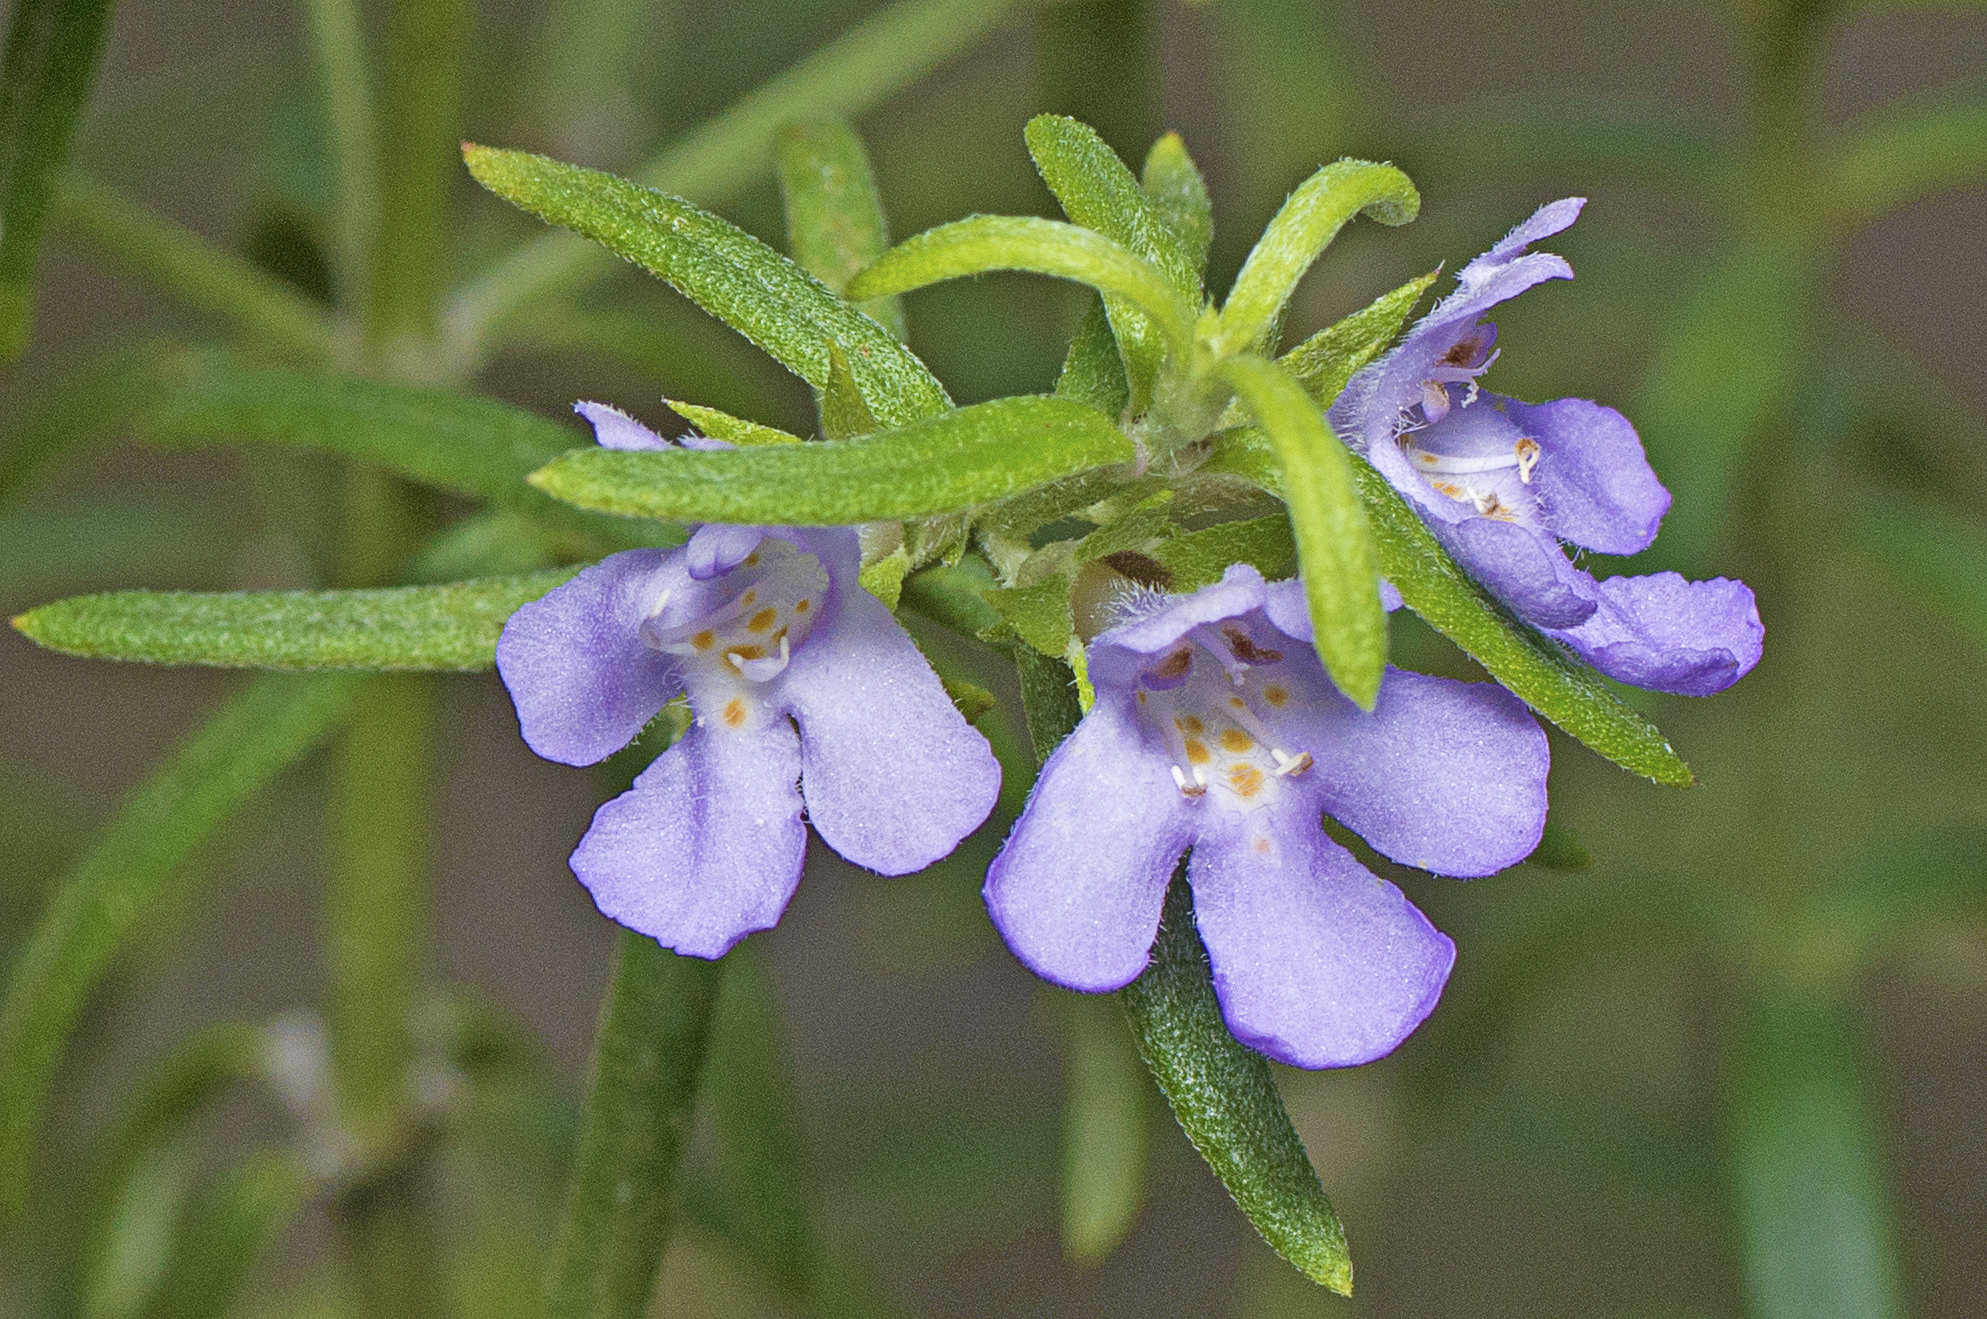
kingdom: Plantae
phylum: Tracheophyta
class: Magnoliopsida
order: Lamiales
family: Lamiaceae
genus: Westringia
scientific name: Westringia eremicola
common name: Slender western-rosemary
